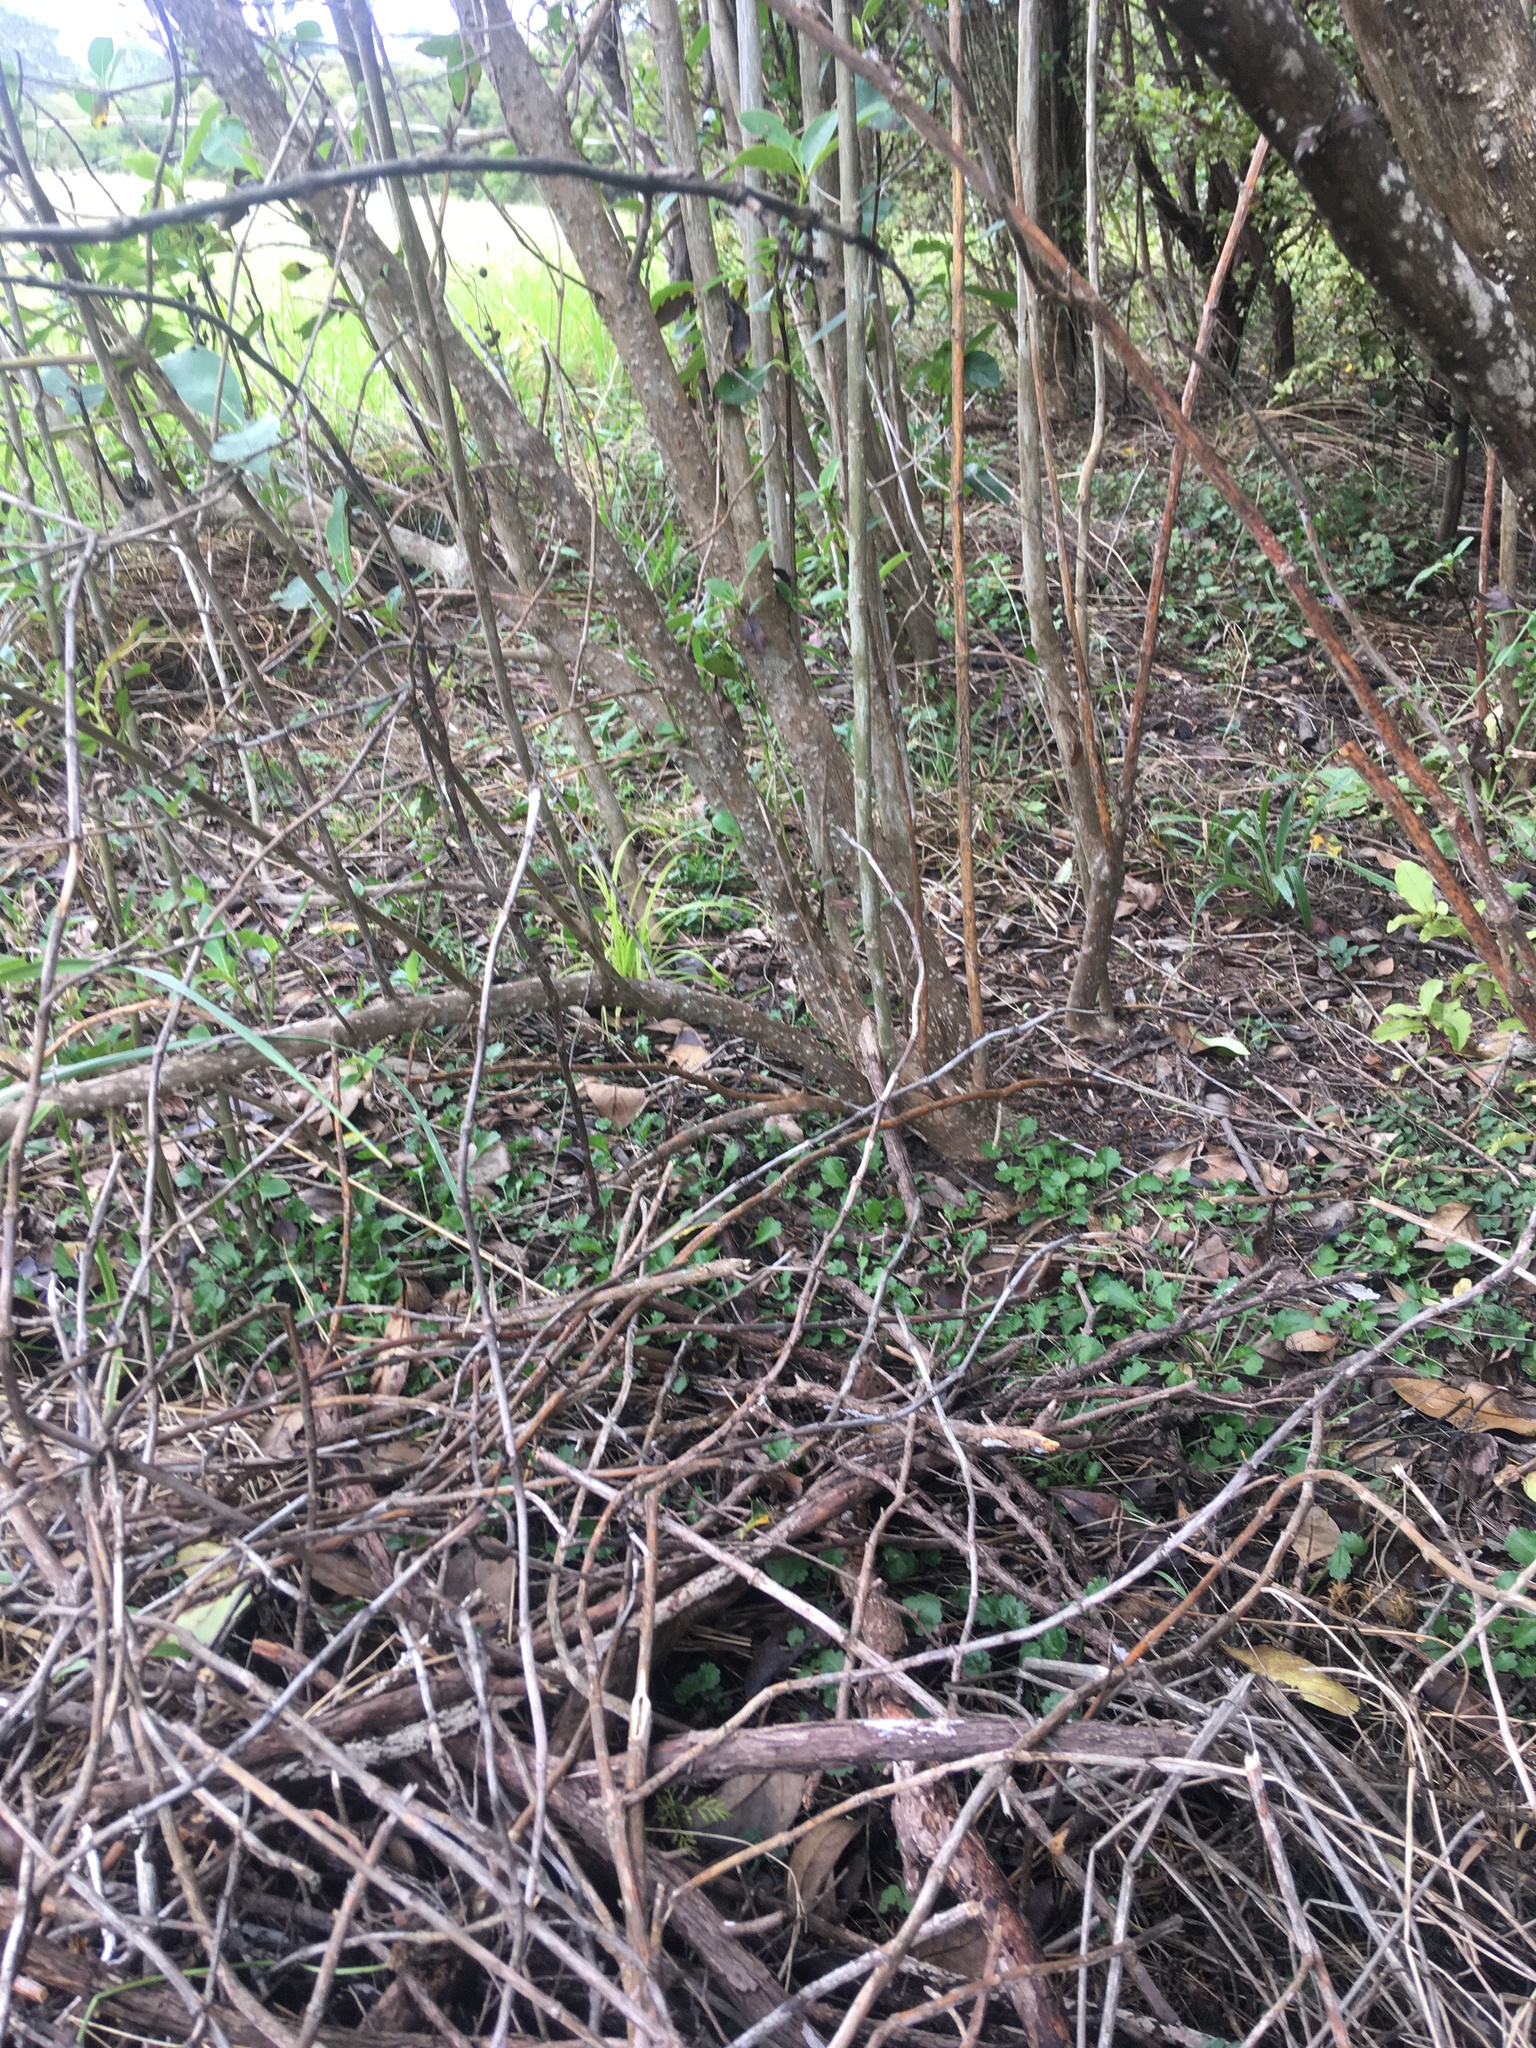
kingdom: Plantae
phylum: Tracheophyta
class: Pinopsida
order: Pinales
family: Phyllocladaceae
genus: Phyllocladus
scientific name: Phyllocladus trichomanoides
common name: Celery pine
